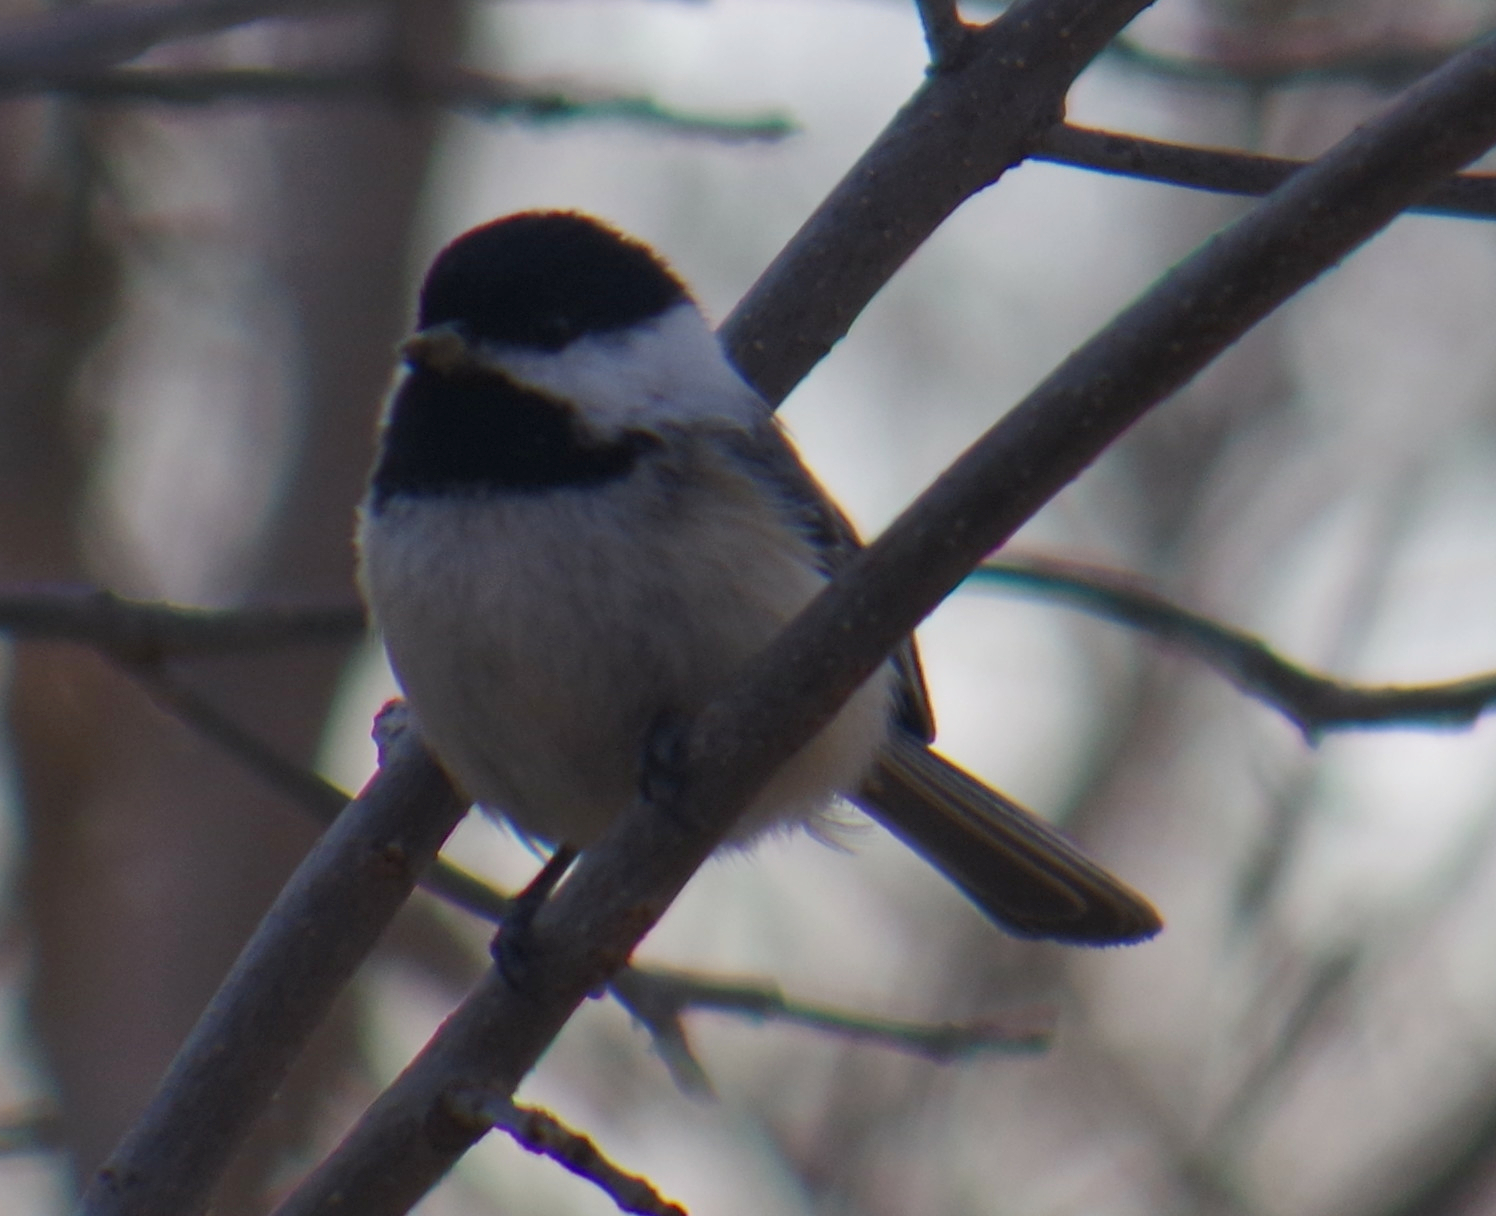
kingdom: Animalia
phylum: Chordata
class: Aves
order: Passeriformes
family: Paridae
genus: Poecile
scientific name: Poecile atricapillus
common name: Black-capped chickadee
